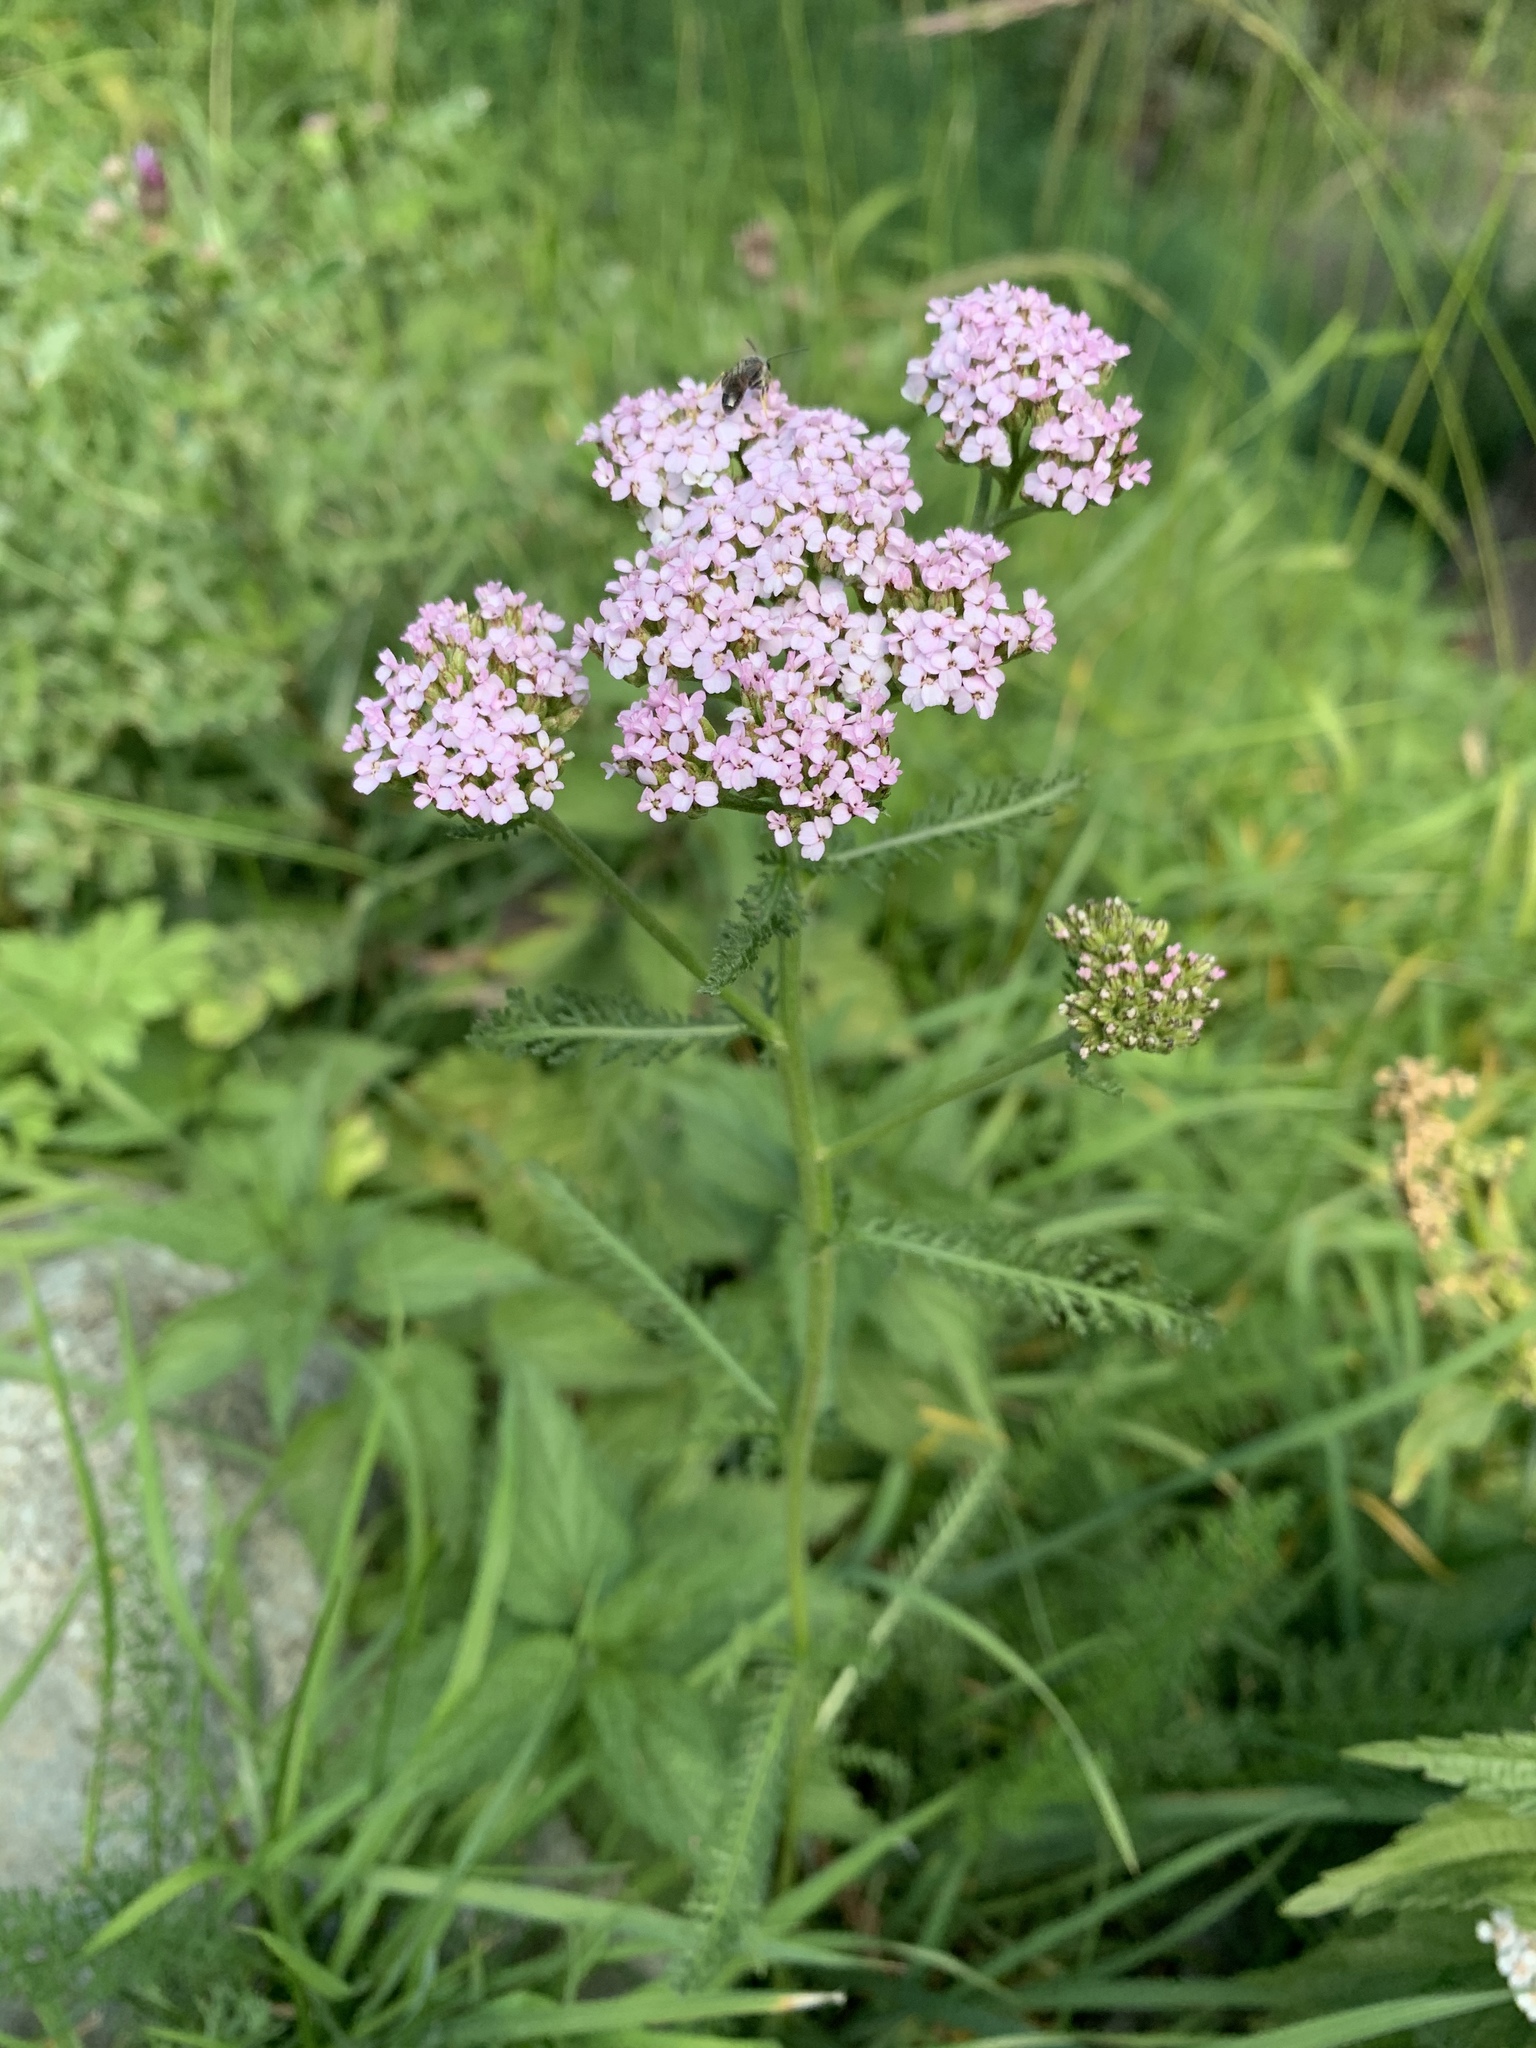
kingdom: Plantae
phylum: Tracheophyta
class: Magnoliopsida
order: Asterales
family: Asteraceae
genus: Achillea
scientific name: Achillea millefolium
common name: Yarrow
